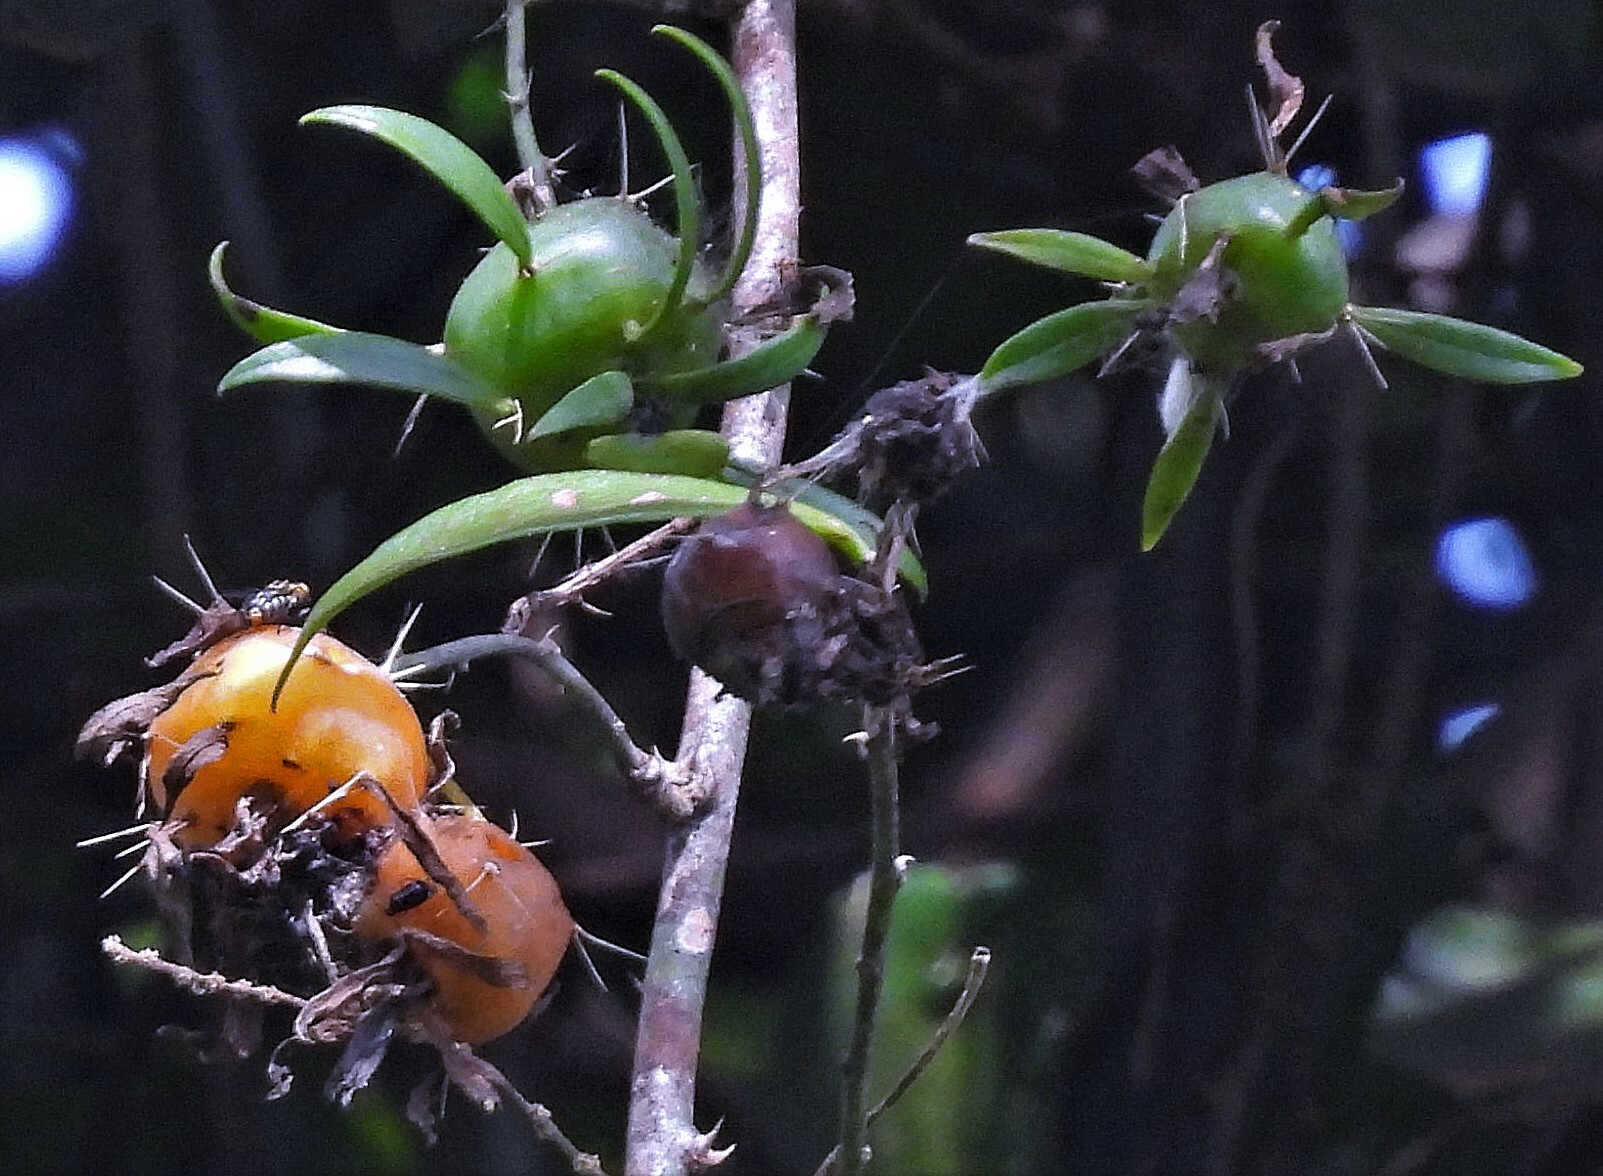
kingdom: Plantae
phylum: Tracheophyta
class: Magnoliopsida
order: Caryophyllales
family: Cactaceae
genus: Pereskia
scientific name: Pereskia aculeata
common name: Barbados gooseberry
